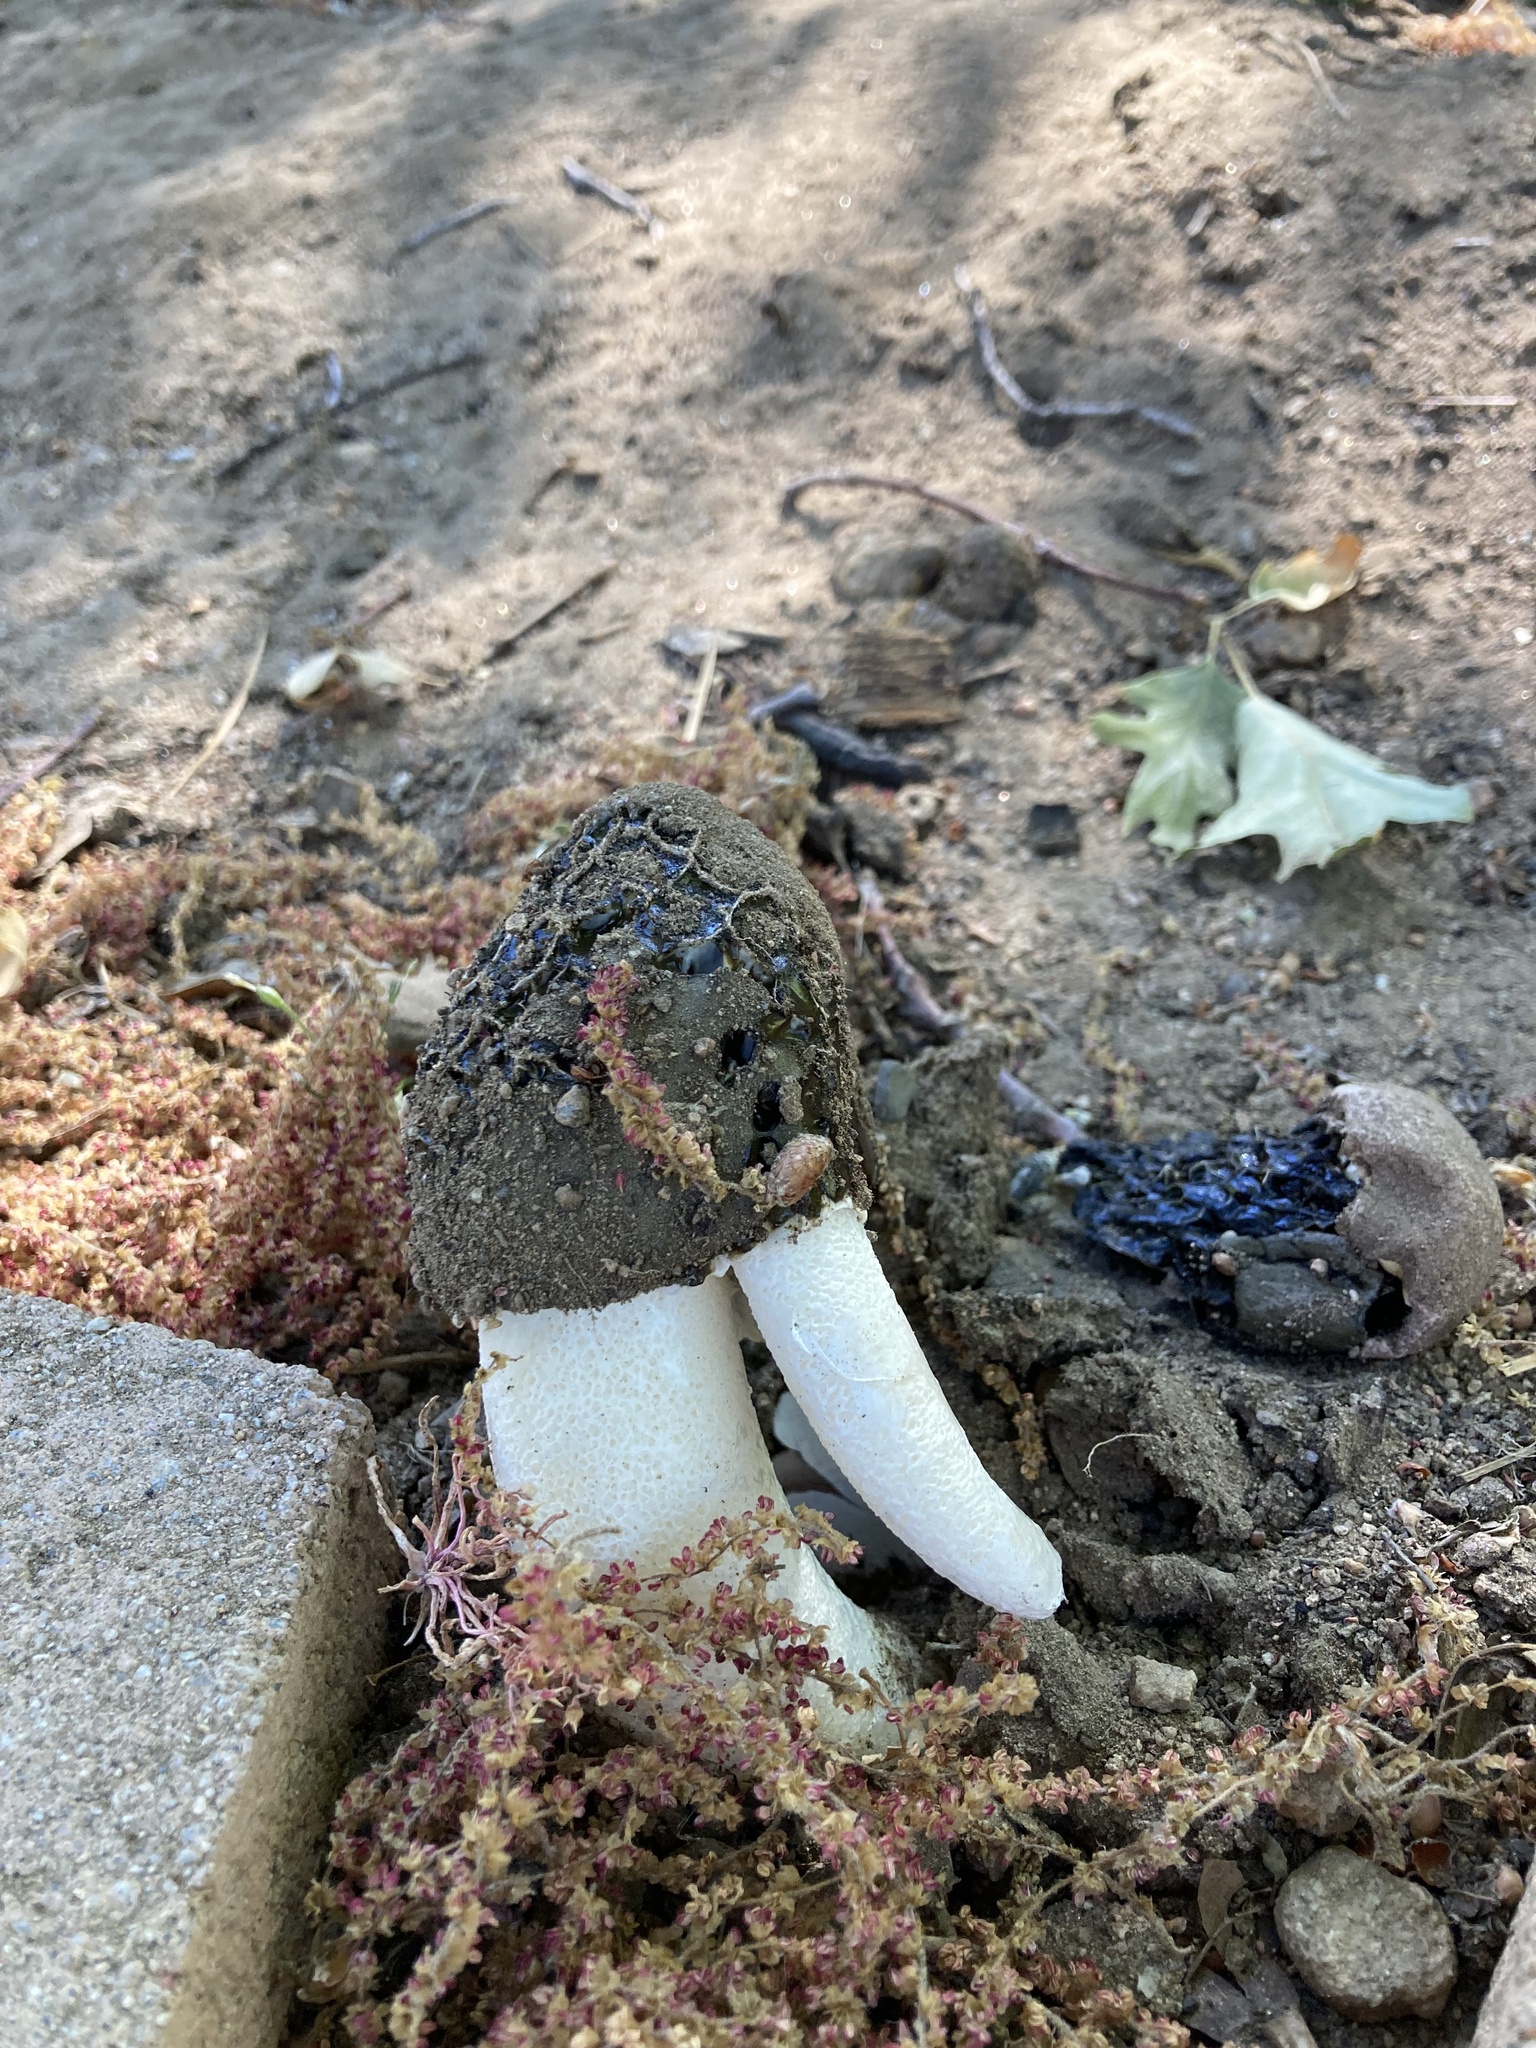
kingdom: Fungi
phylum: Basidiomycota
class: Agaricomycetes
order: Phallales
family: Phallaceae
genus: Phallus
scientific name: Phallus hadriani
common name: Sand stinkhorn
